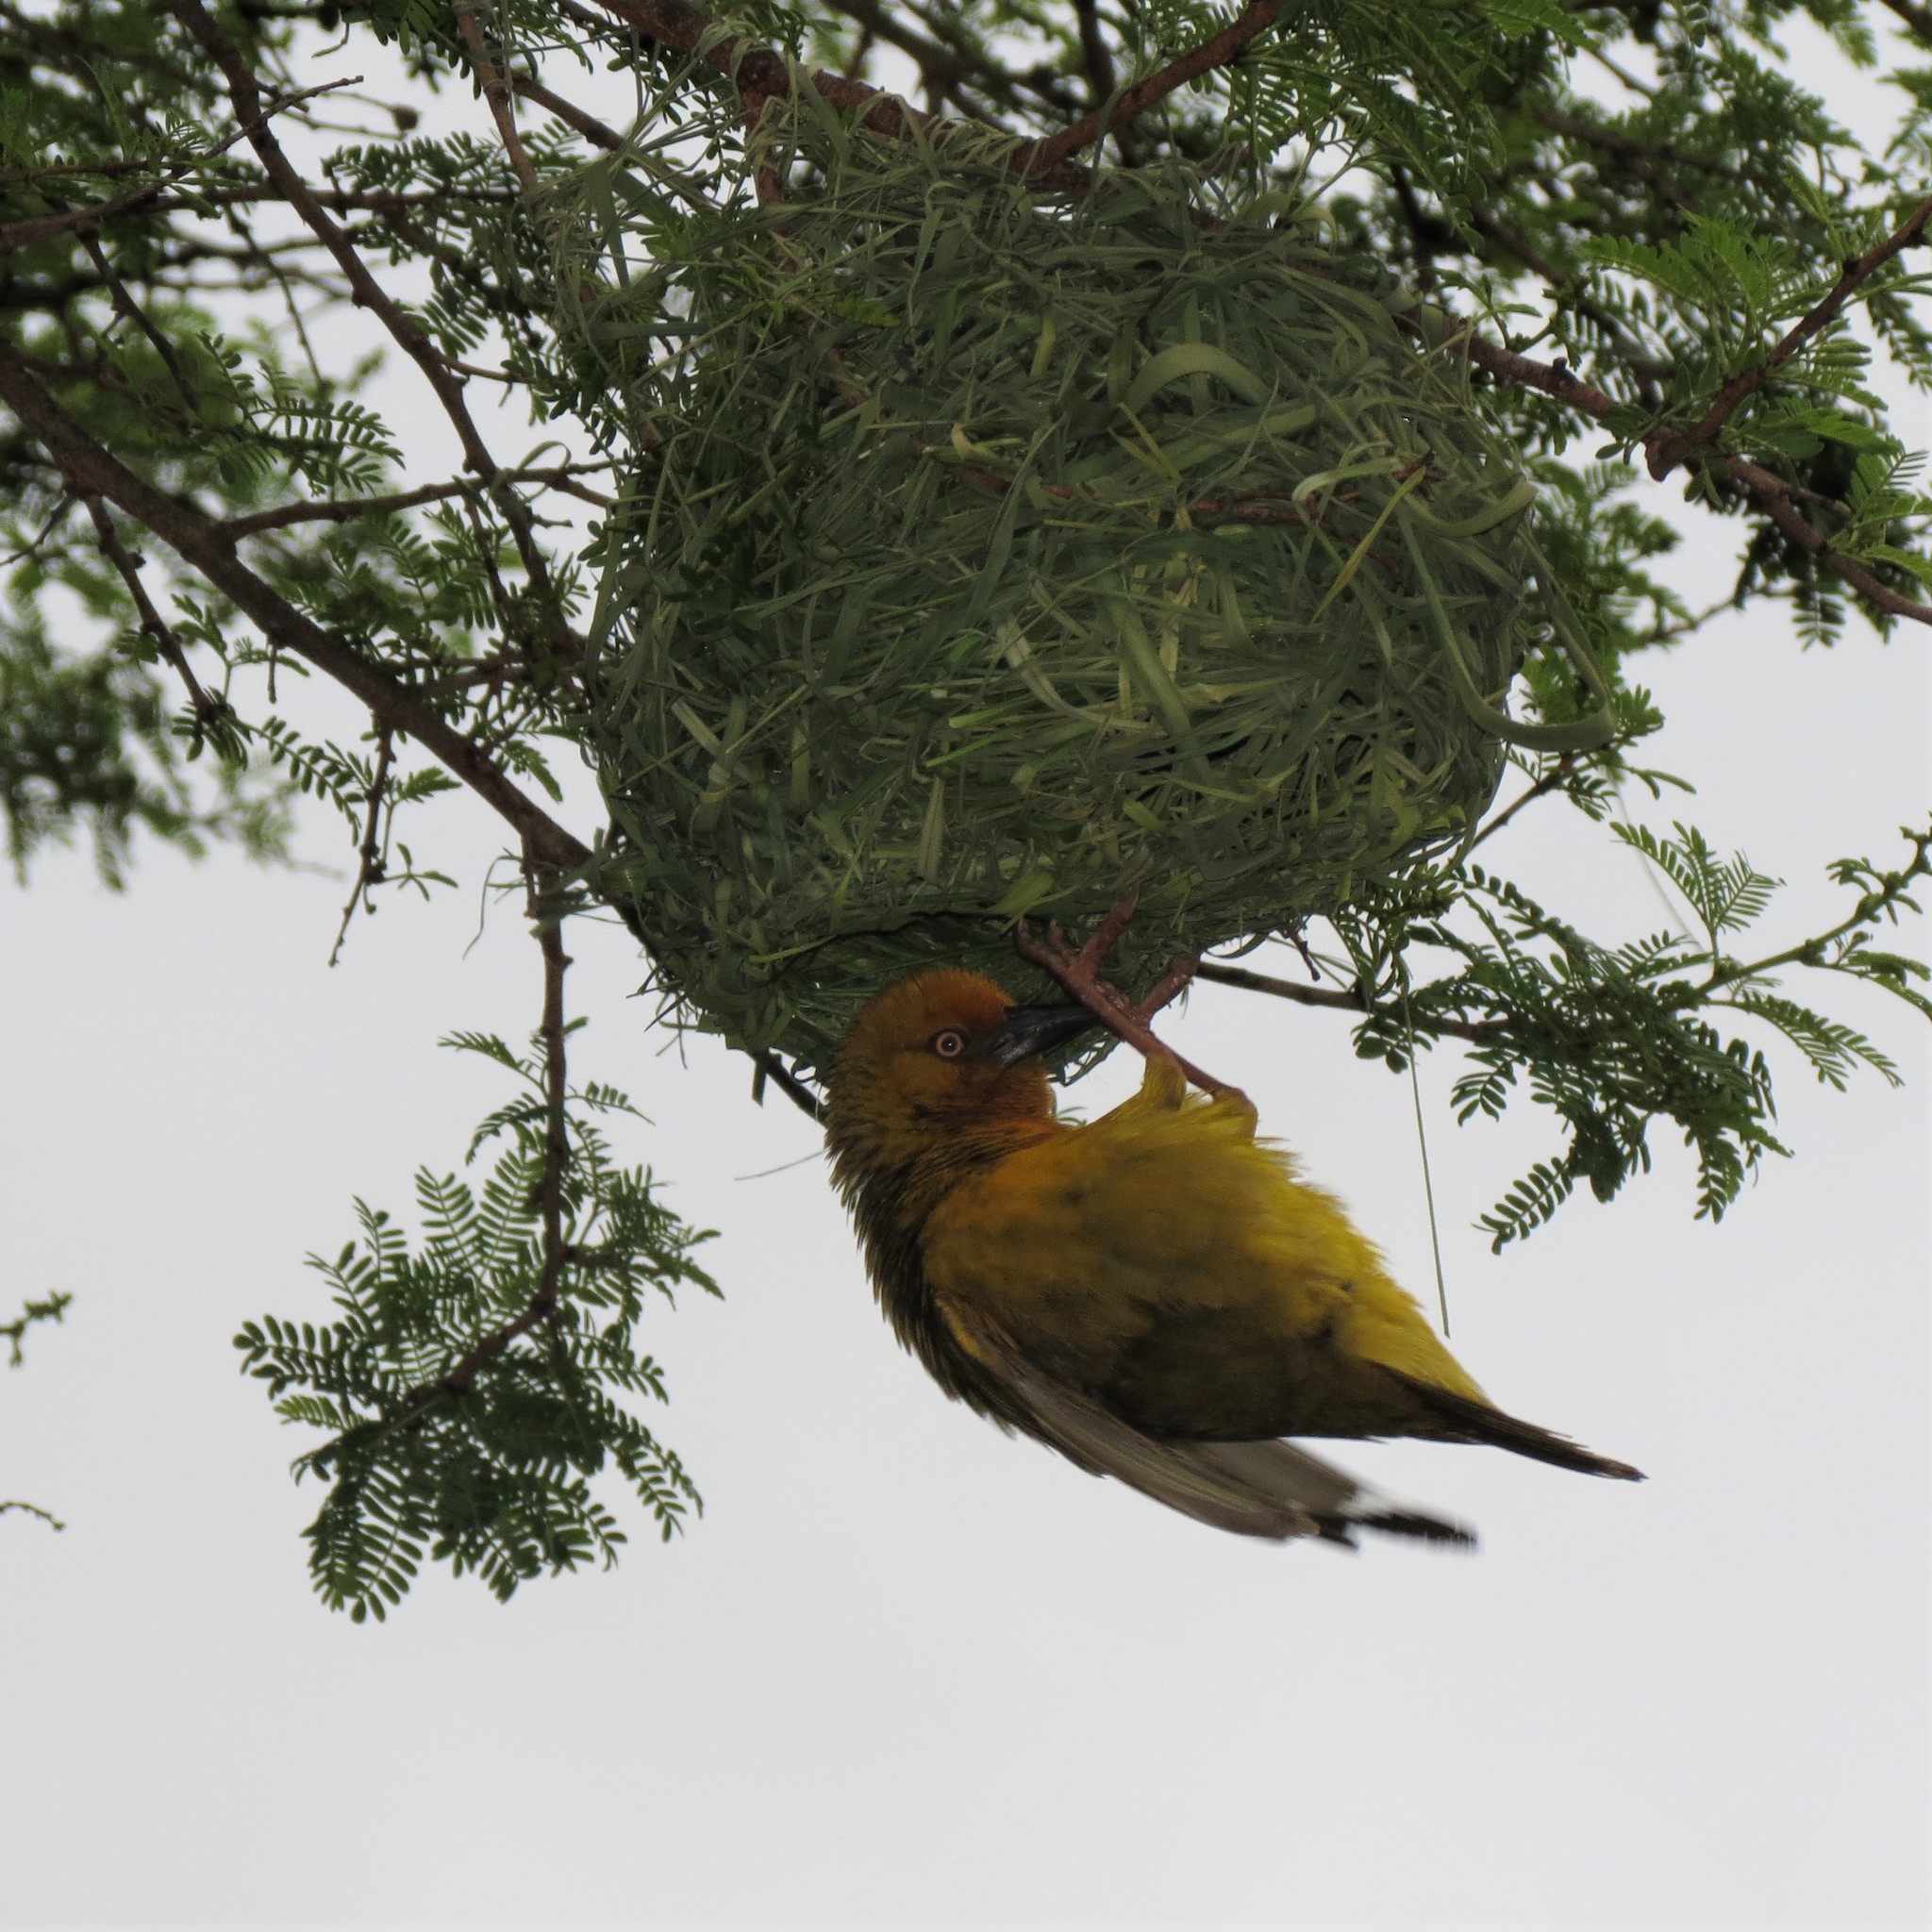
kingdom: Animalia
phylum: Chordata
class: Aves
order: Passeriformes
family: Ploceidae
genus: Ploceus
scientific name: Ploceus capensis
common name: Cape weaver
